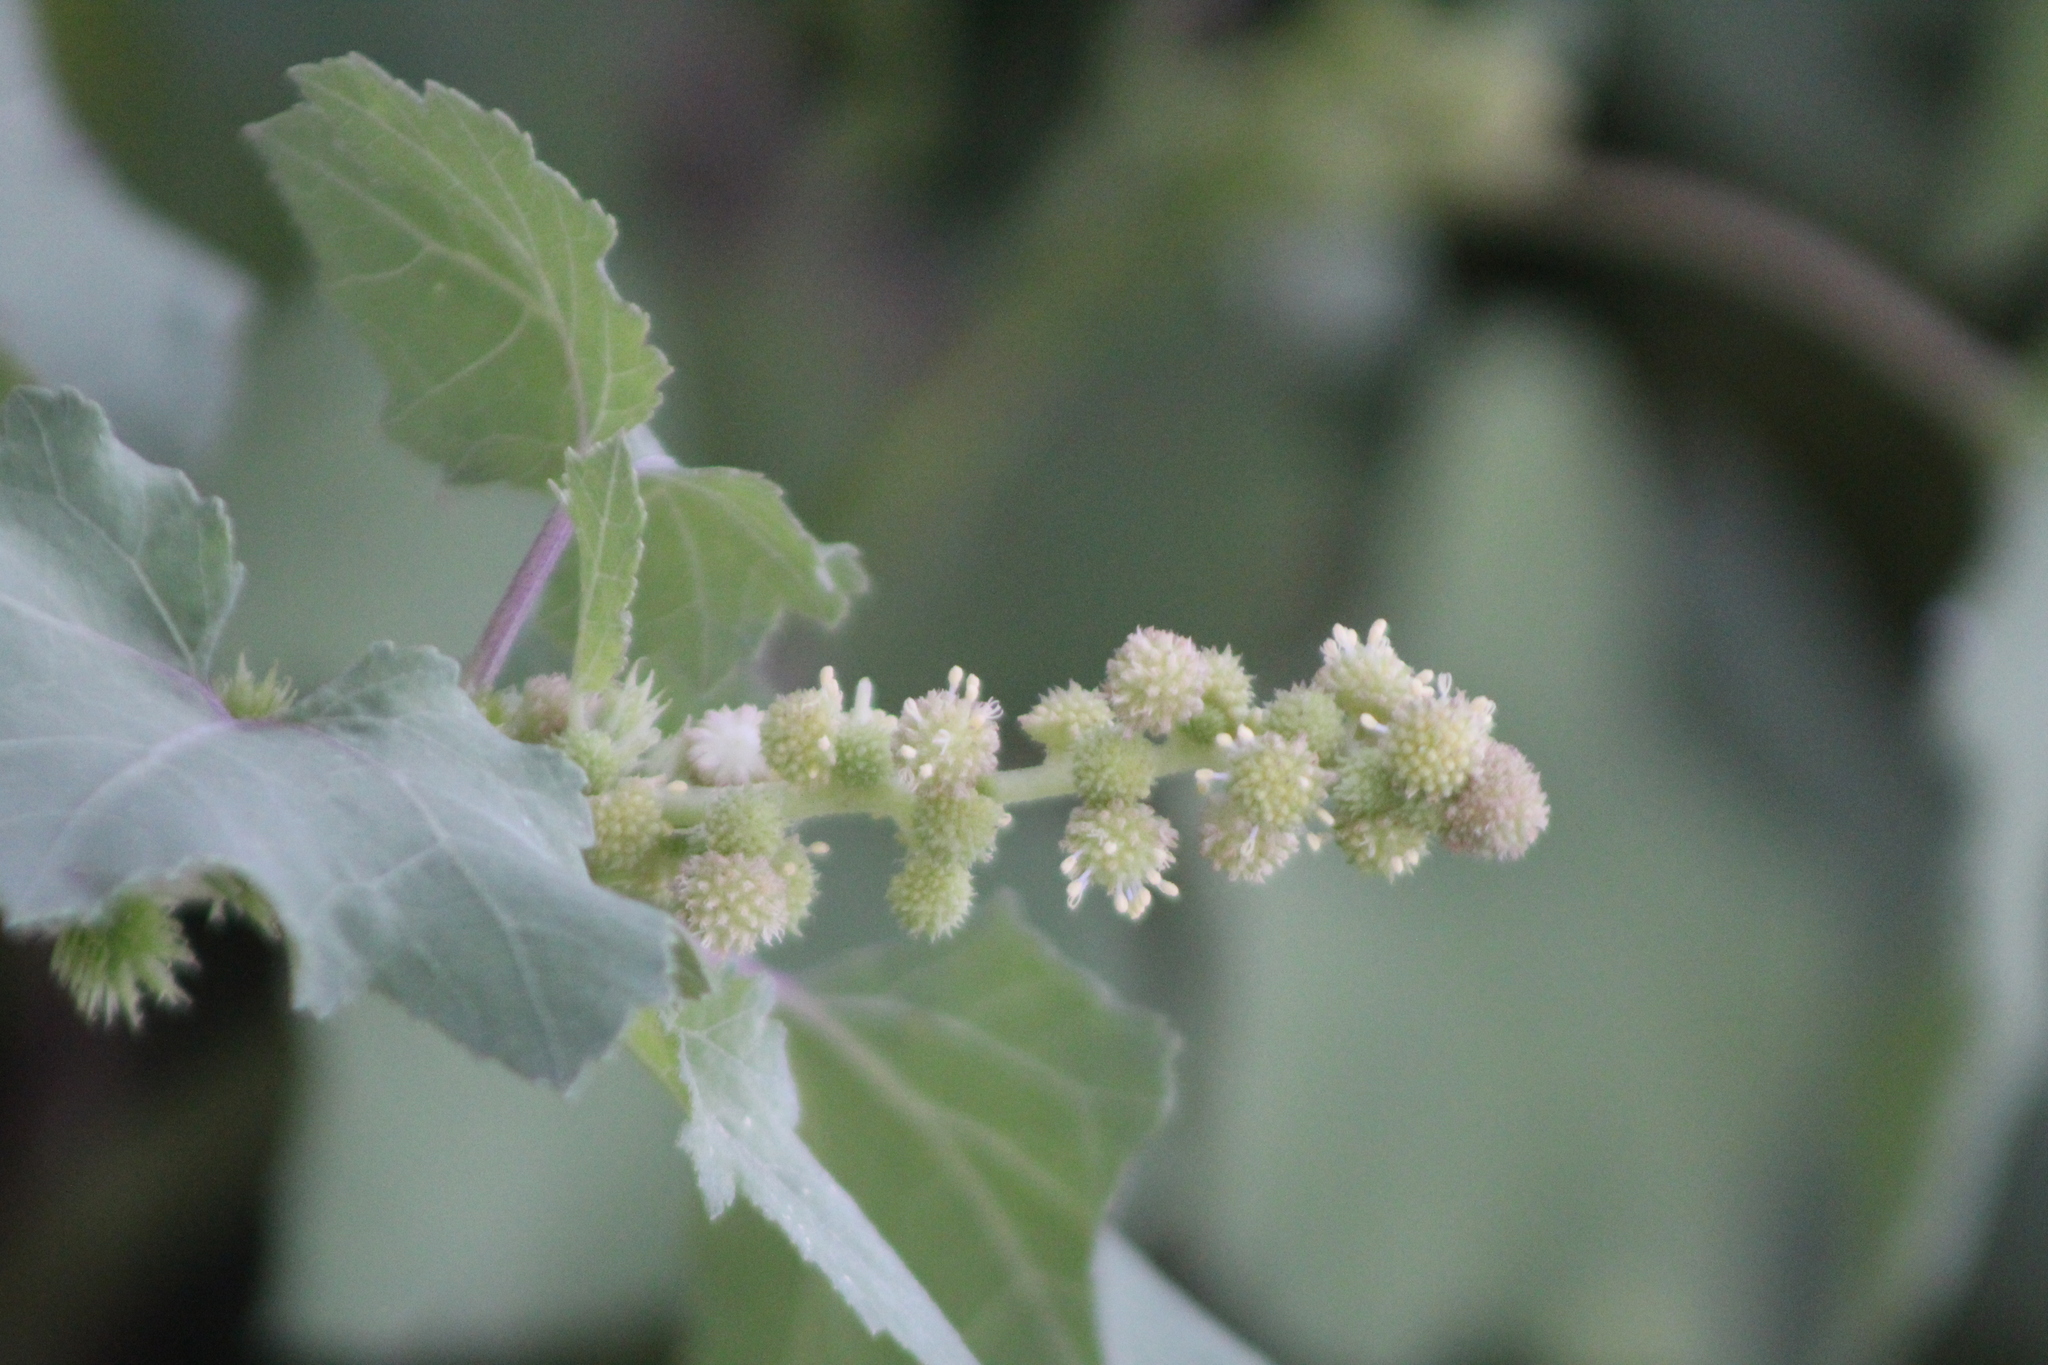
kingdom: Plantae
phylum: Tracheophyta
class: Magnoliopsida
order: Asterales
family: Asteraceae
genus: Xanthium
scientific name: Xanthium strumarium
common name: Rough cocklebur
